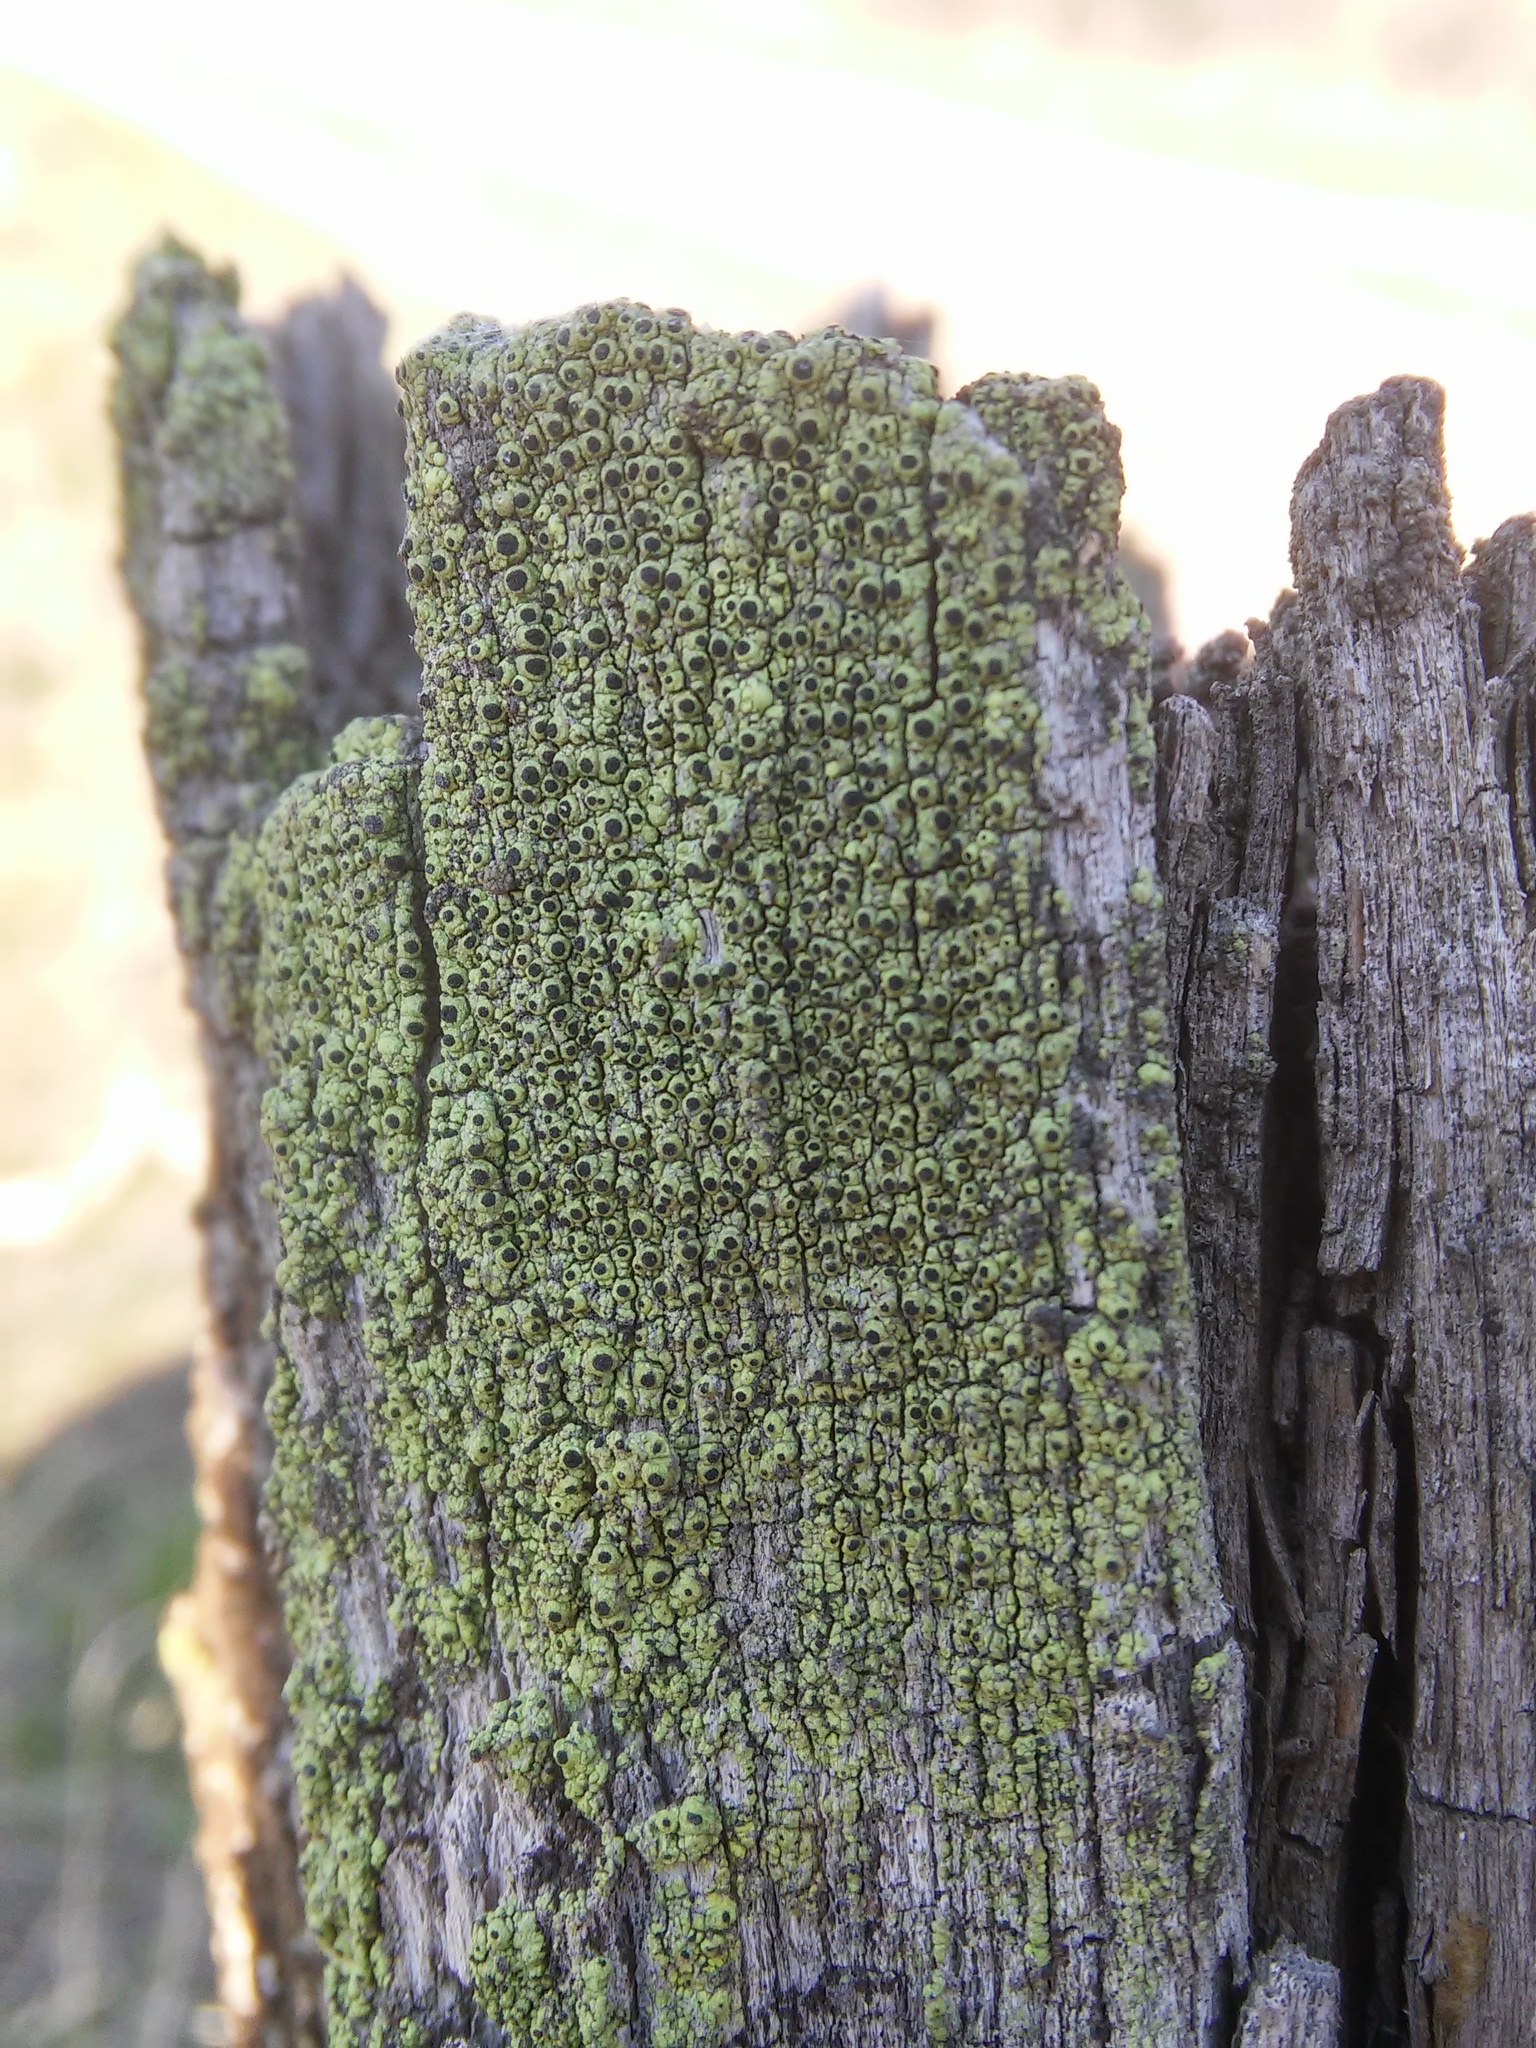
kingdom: Fungi
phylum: Ascomycota
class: Lecanoromycetes
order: Caliciales
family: Caliciaceae
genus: Calicium
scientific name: Calicium tigillare
